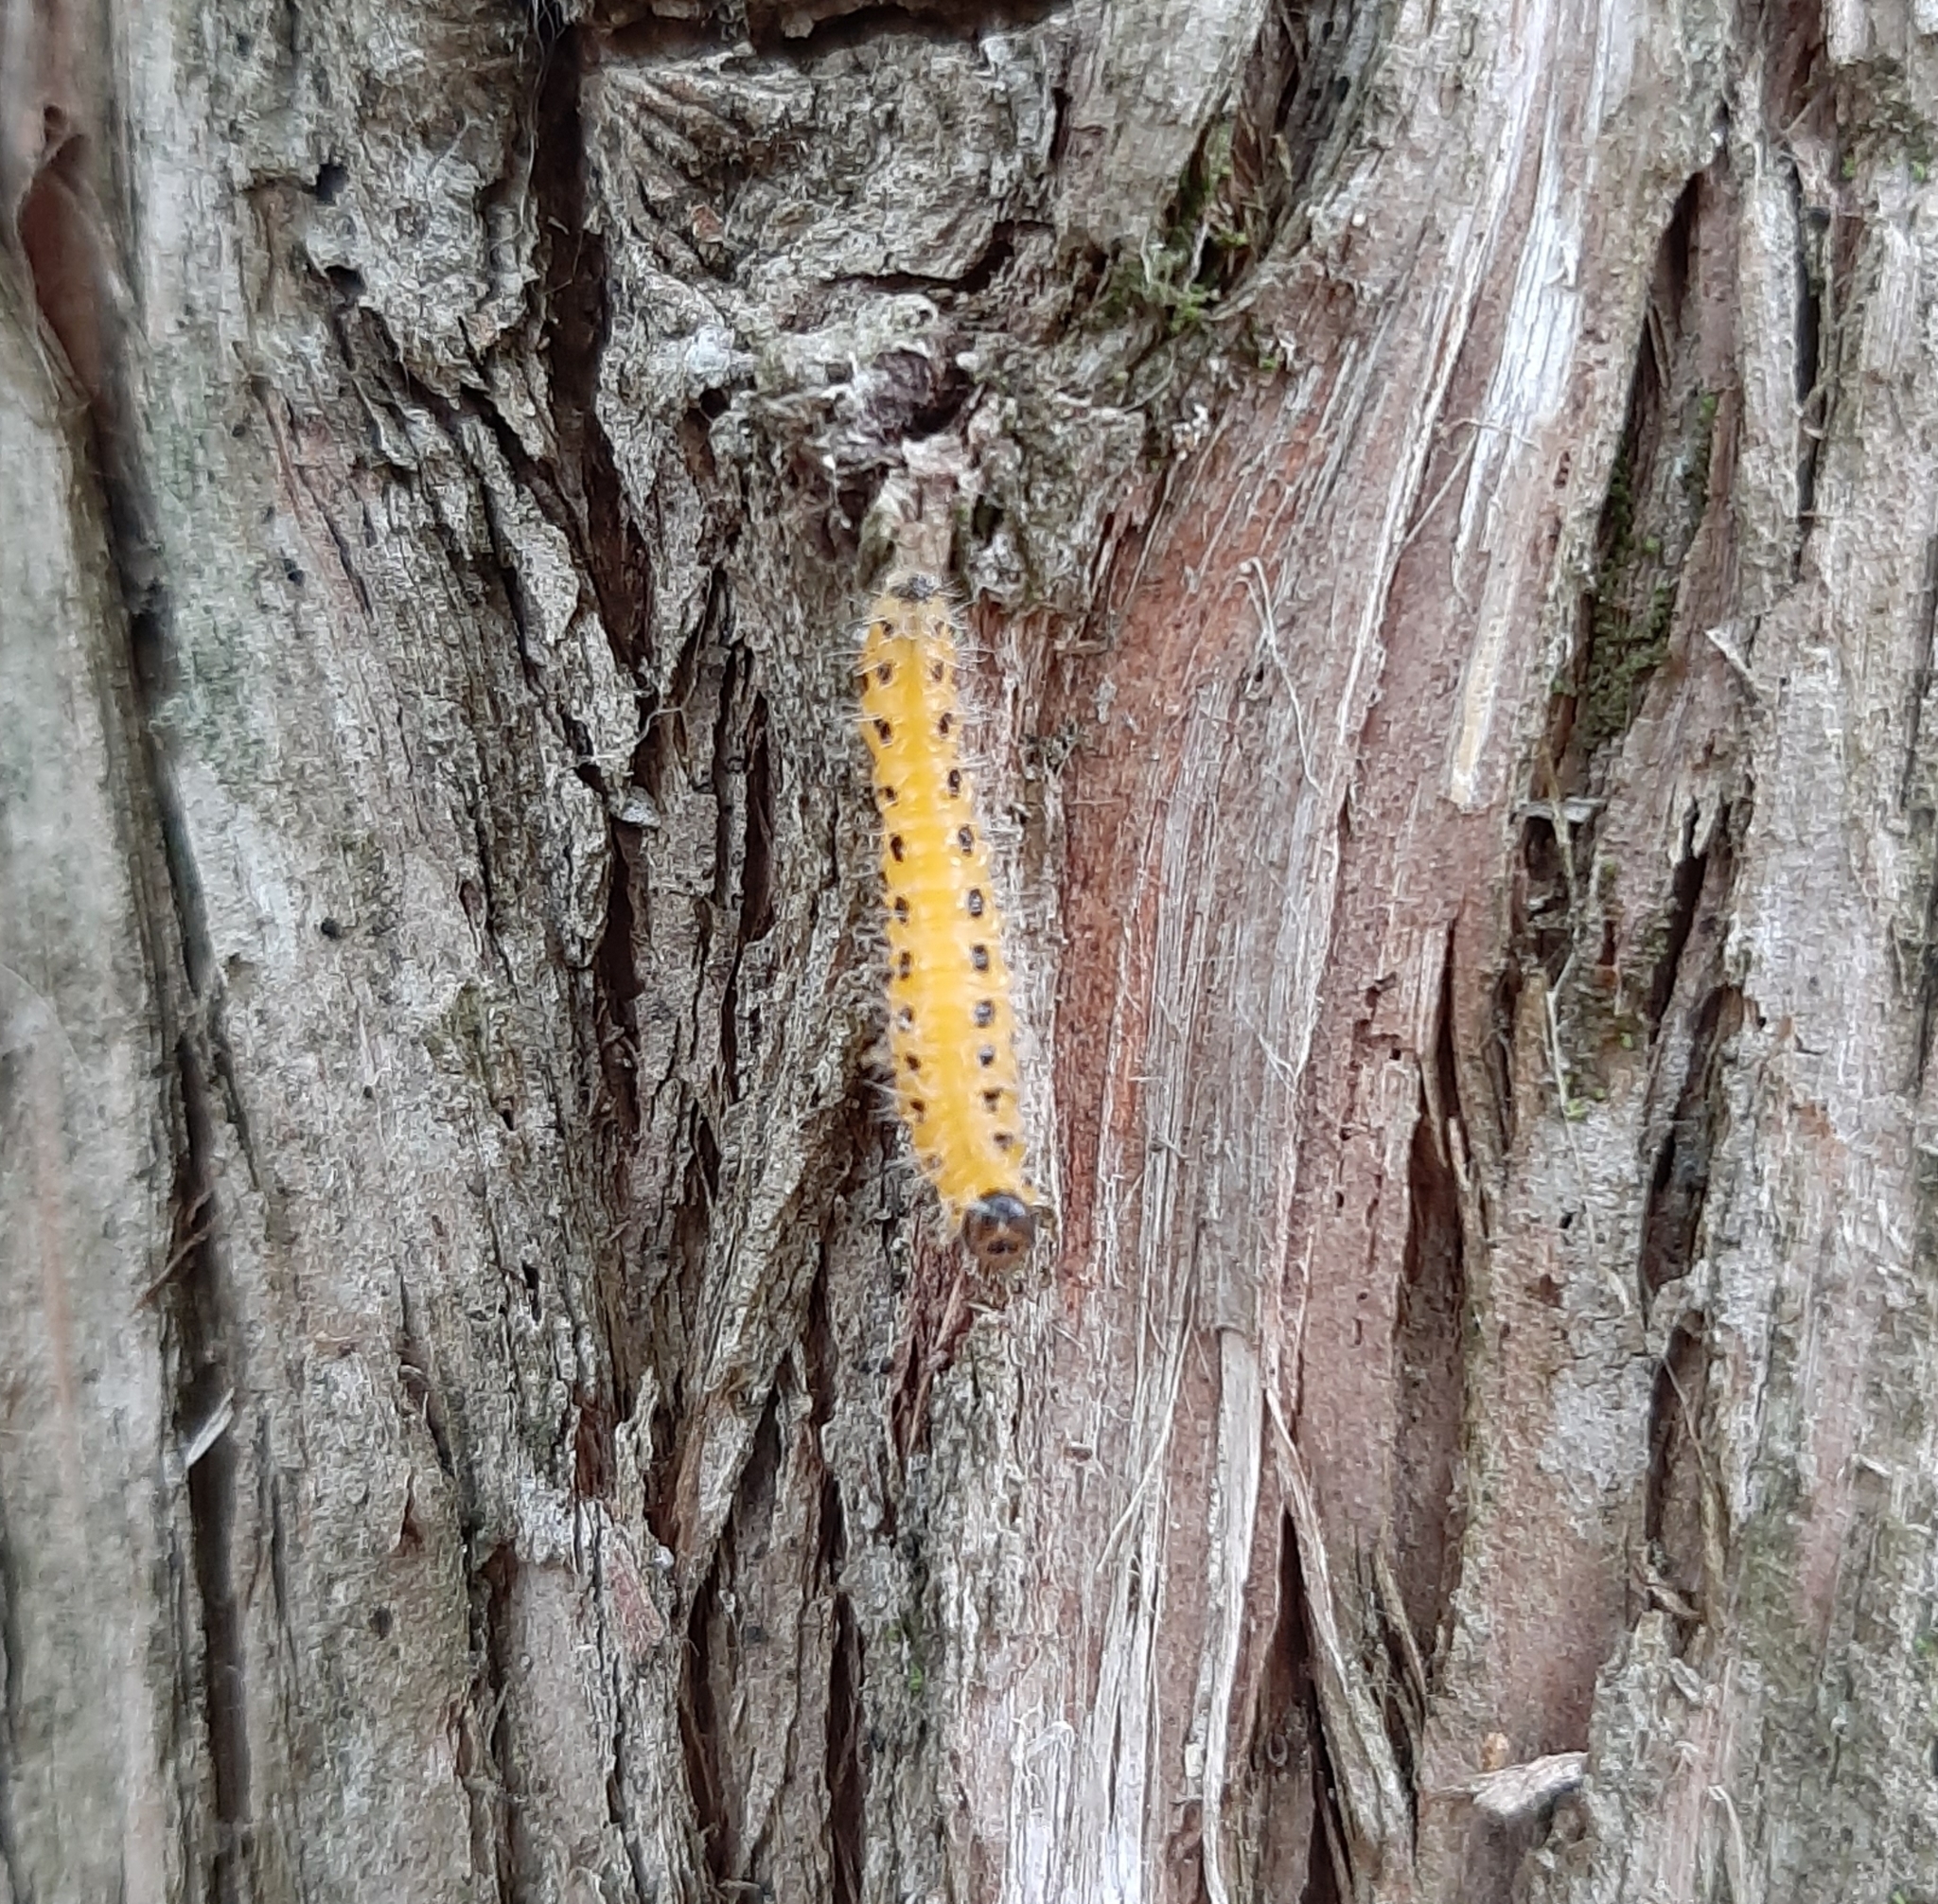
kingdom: Animalia
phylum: Arthropoda
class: Insecta
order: Hymenoptera
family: Tenthredinidae
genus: Cladius
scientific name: Cladius grandis
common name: Common sawfly
